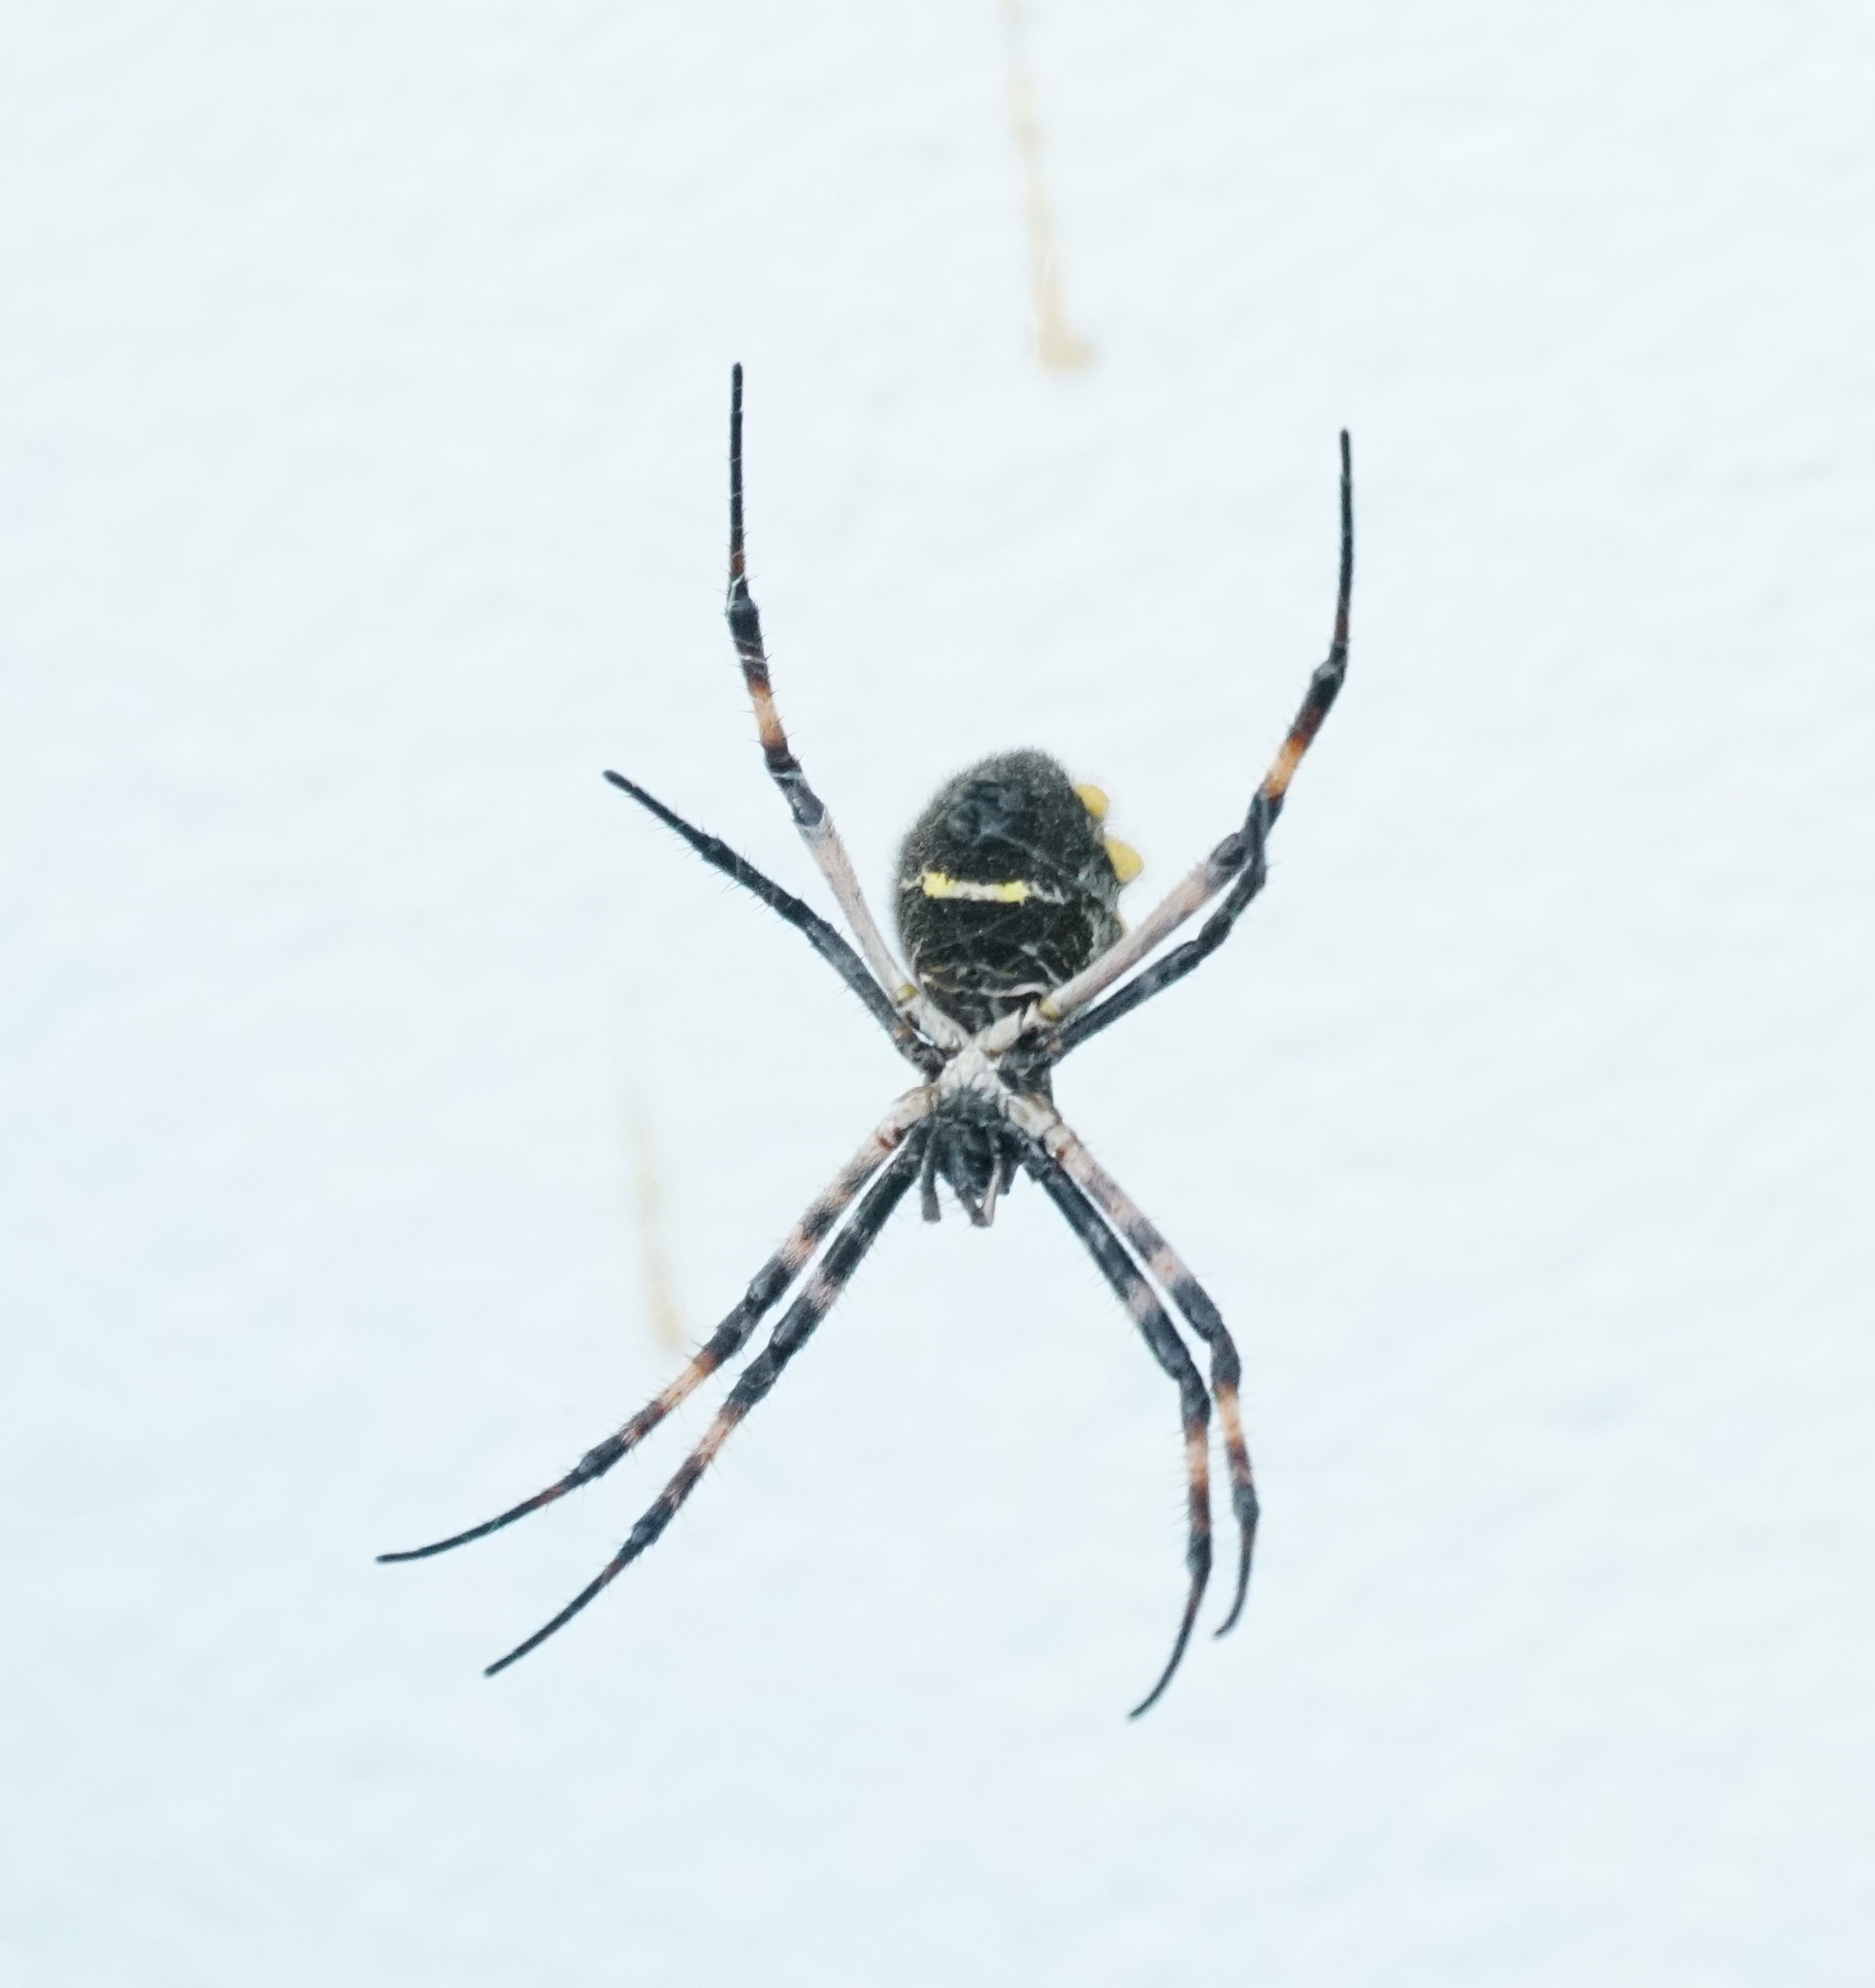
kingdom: Animalia
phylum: Arthropoda
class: Arachnida
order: Araneae
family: Araneidae
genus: Argiope
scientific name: Argiope argentata
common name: Orb weavers
